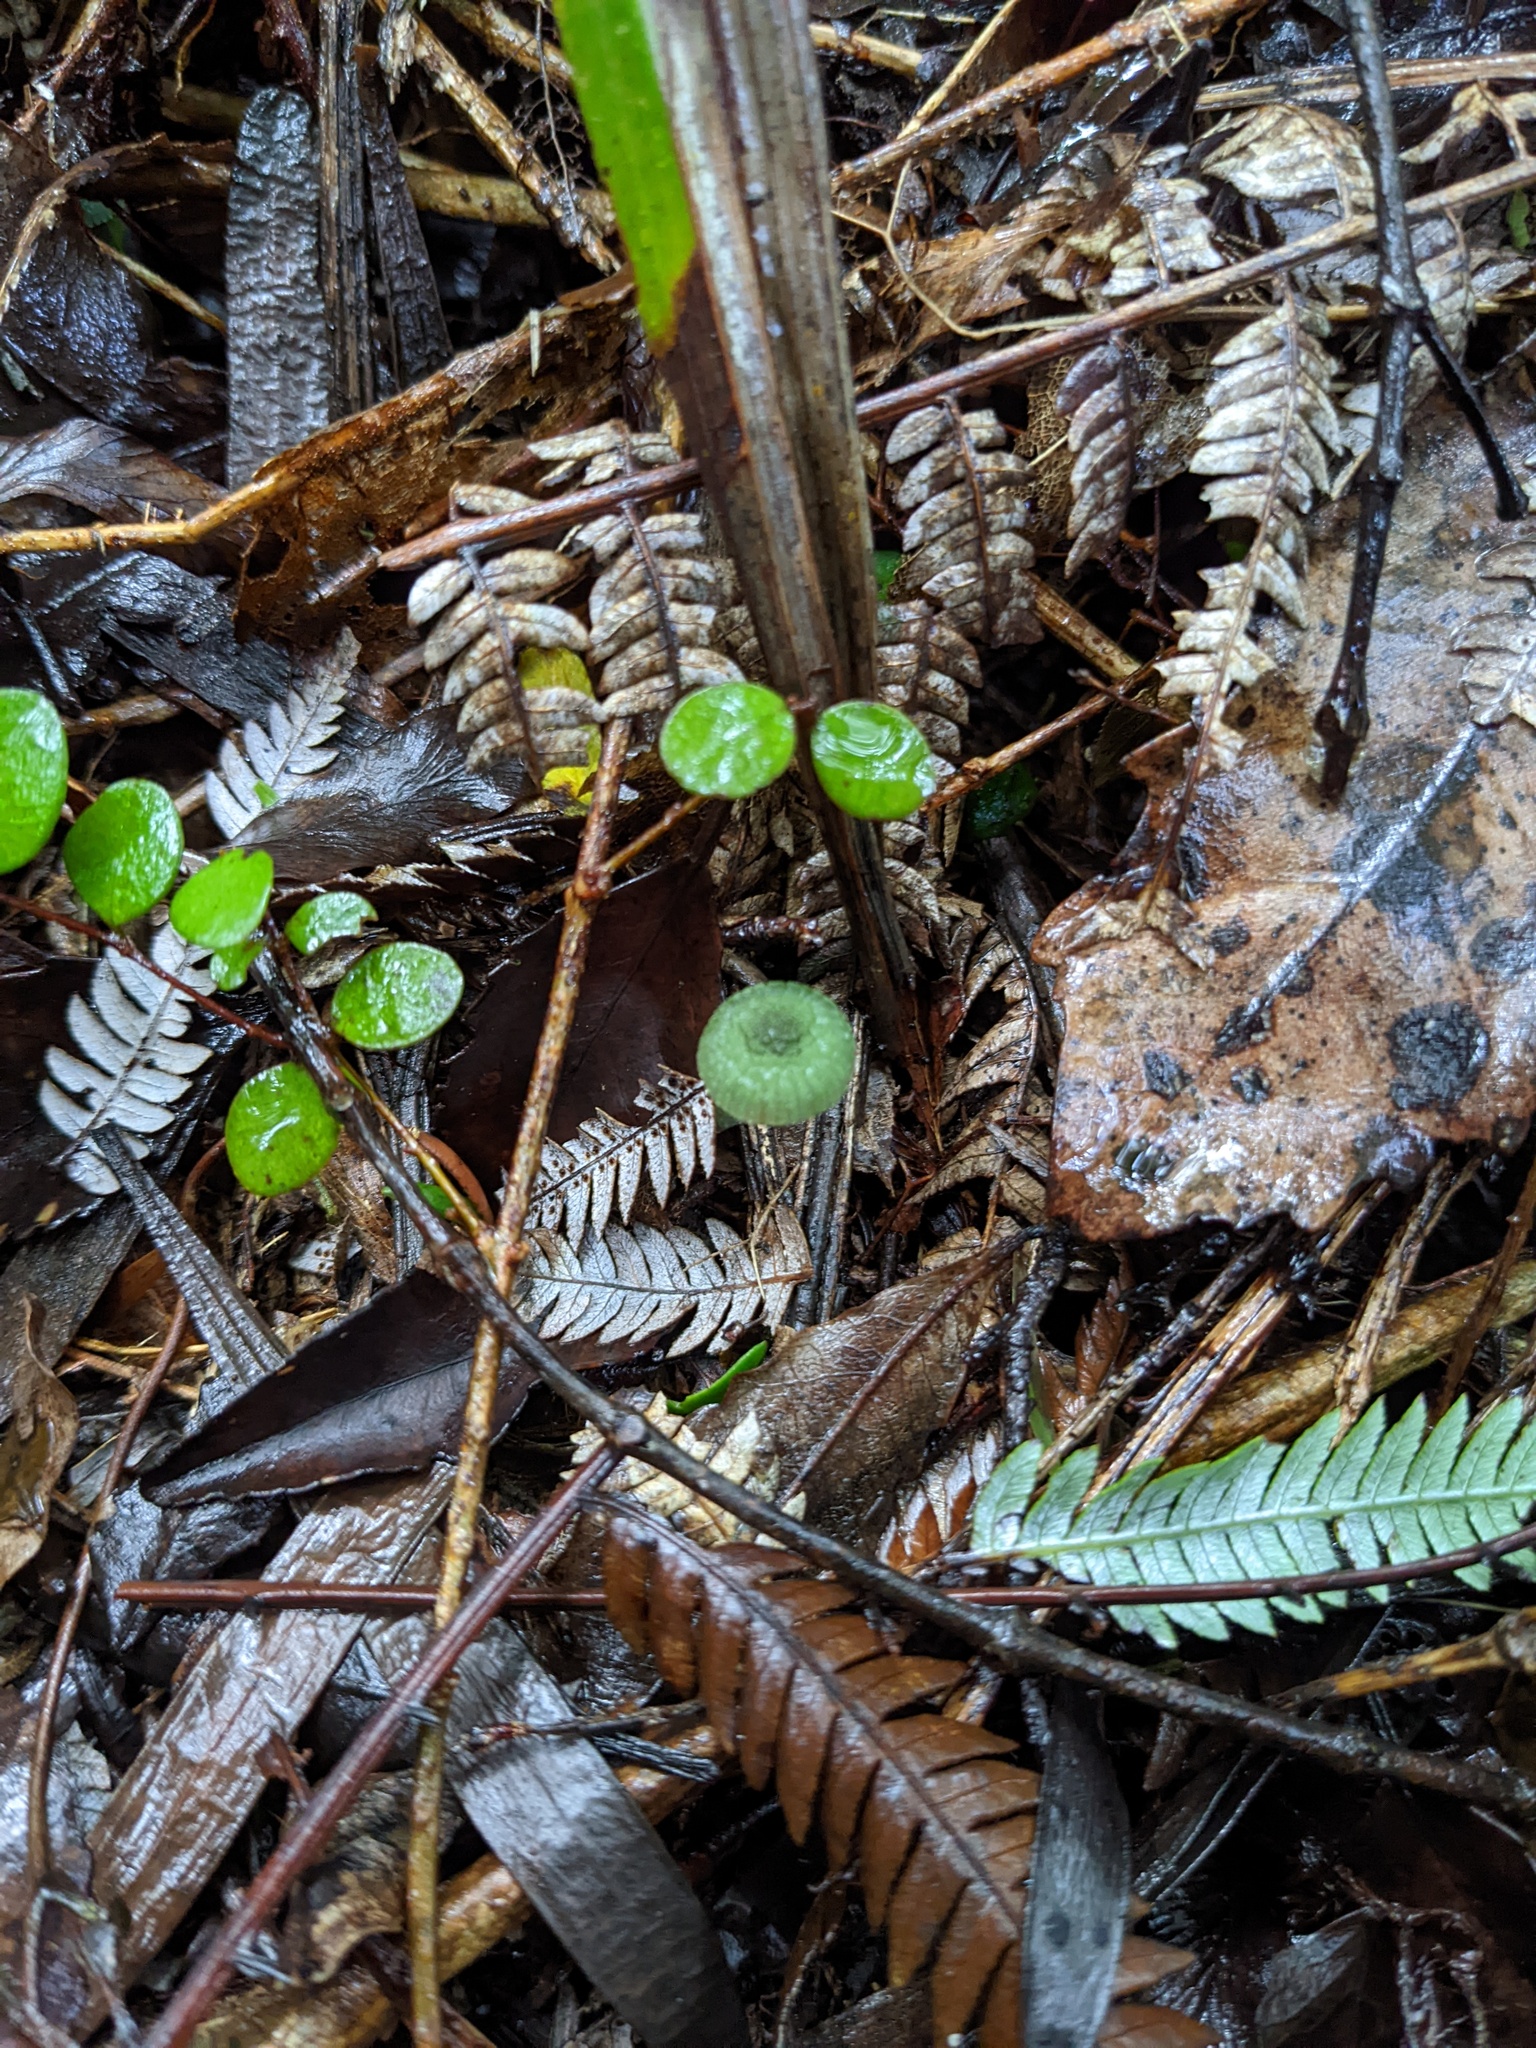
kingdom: Fungi
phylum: Basidiomycota
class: Agaricomycetes
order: Agaricales
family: Hygrophoraceae
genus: Gliophorus
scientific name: Gliophorus graminicolor
